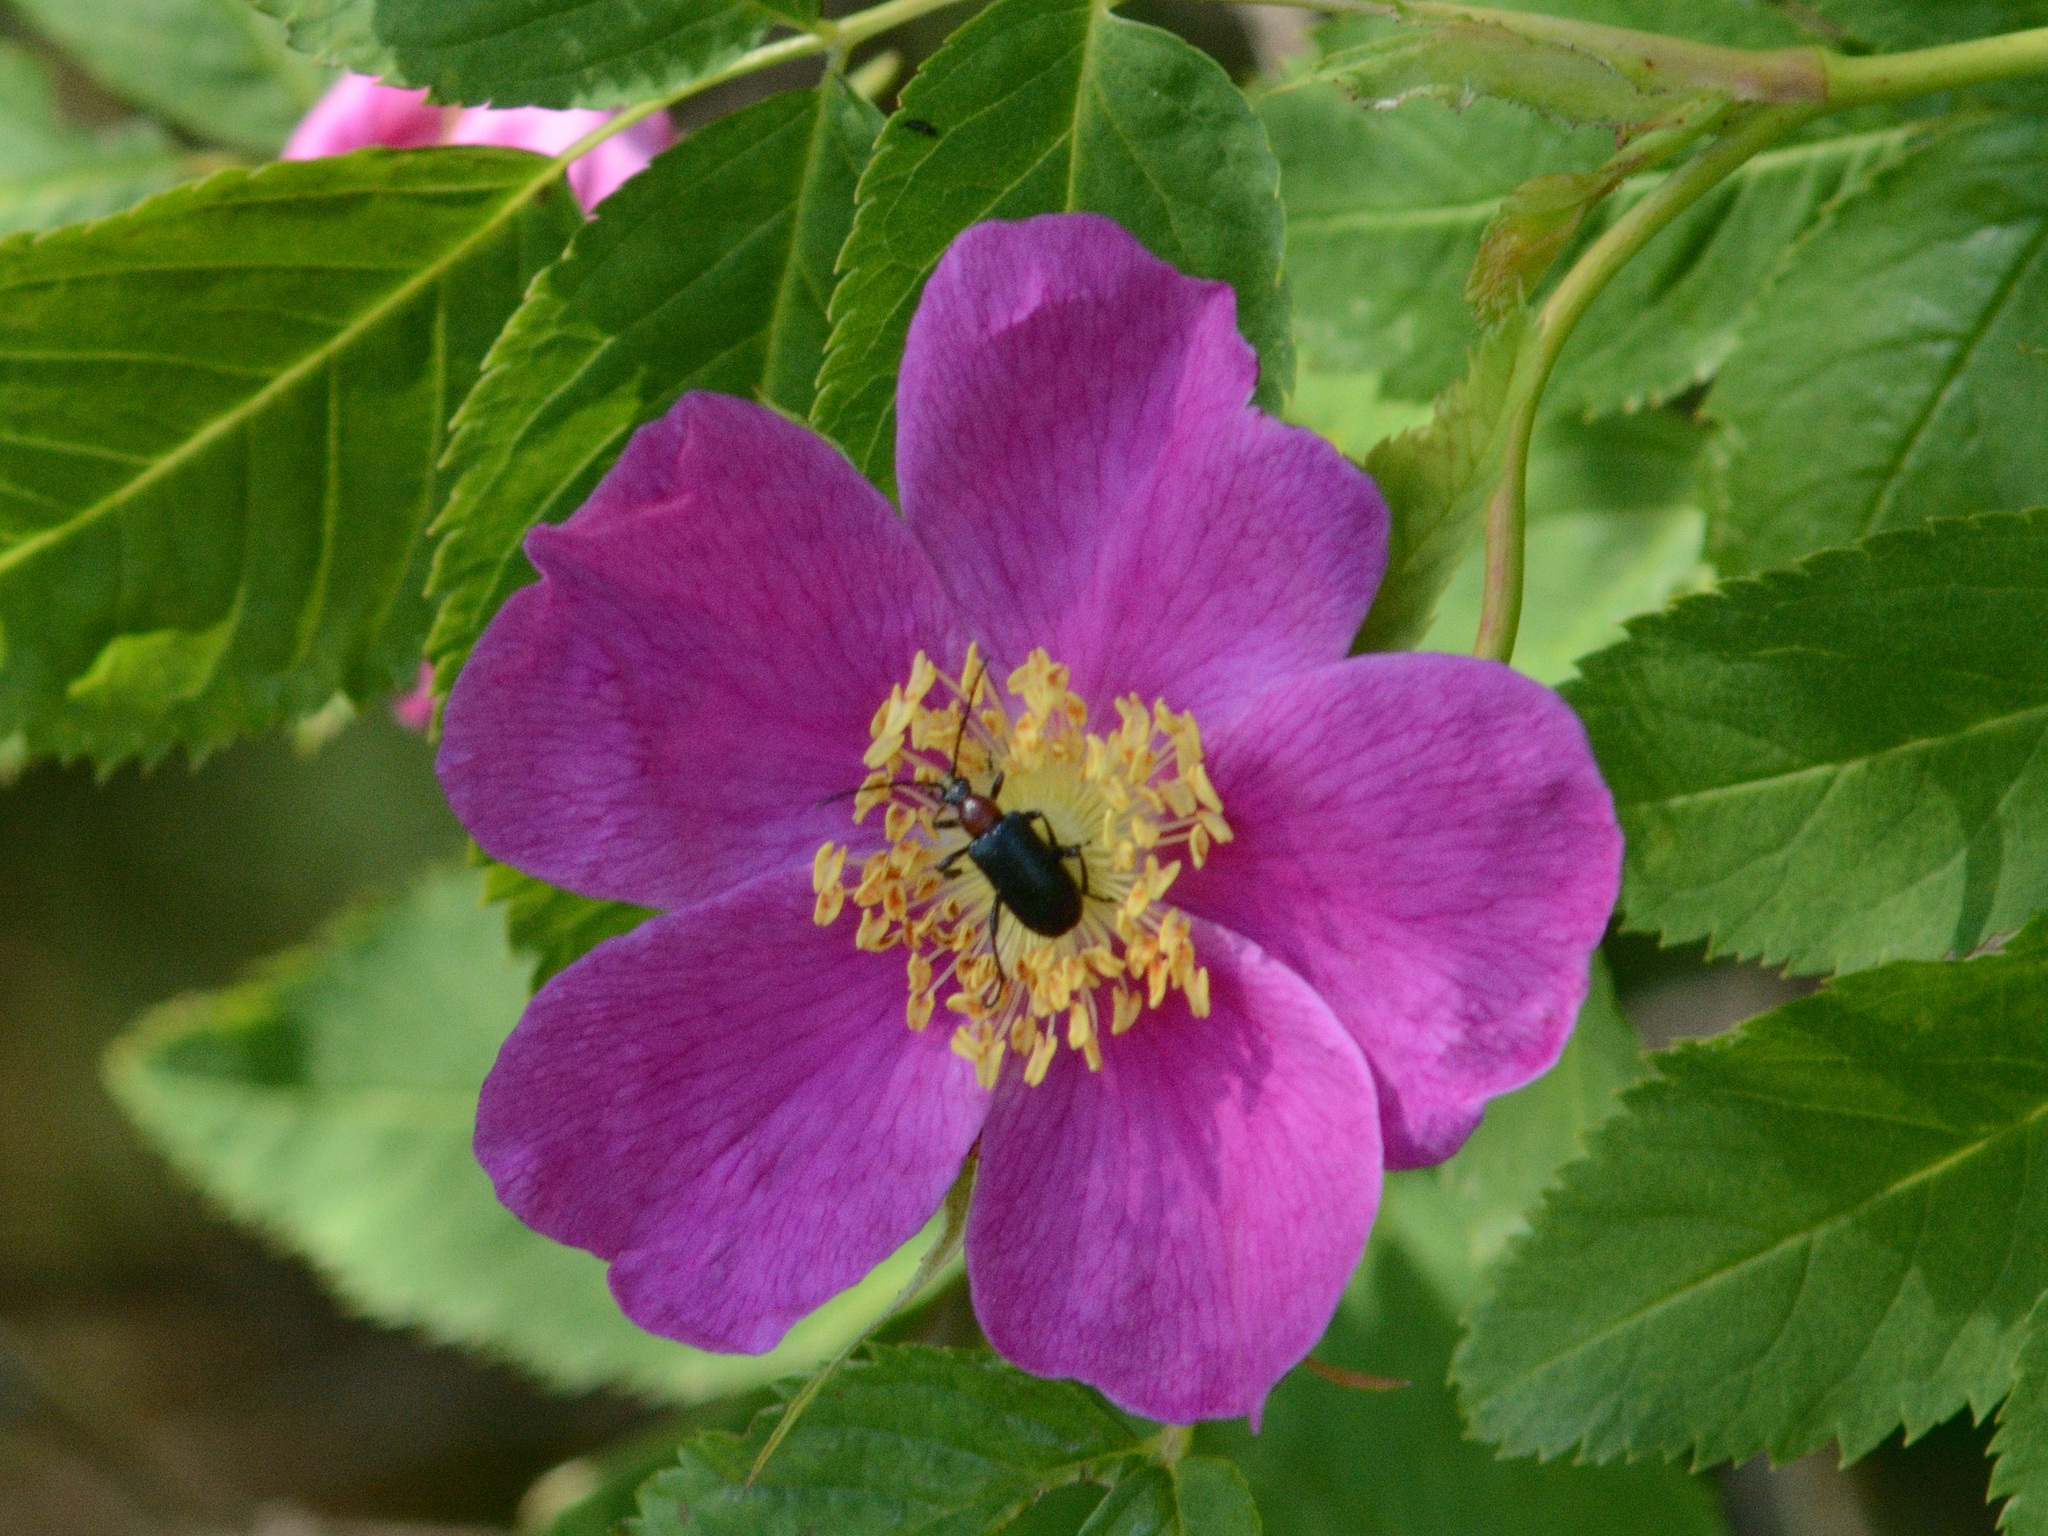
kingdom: Animalia
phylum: Arthropoda
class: Insecta
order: Coleoptera
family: Cerambycidae
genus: Dinoptera
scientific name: Dinoptera collaris
